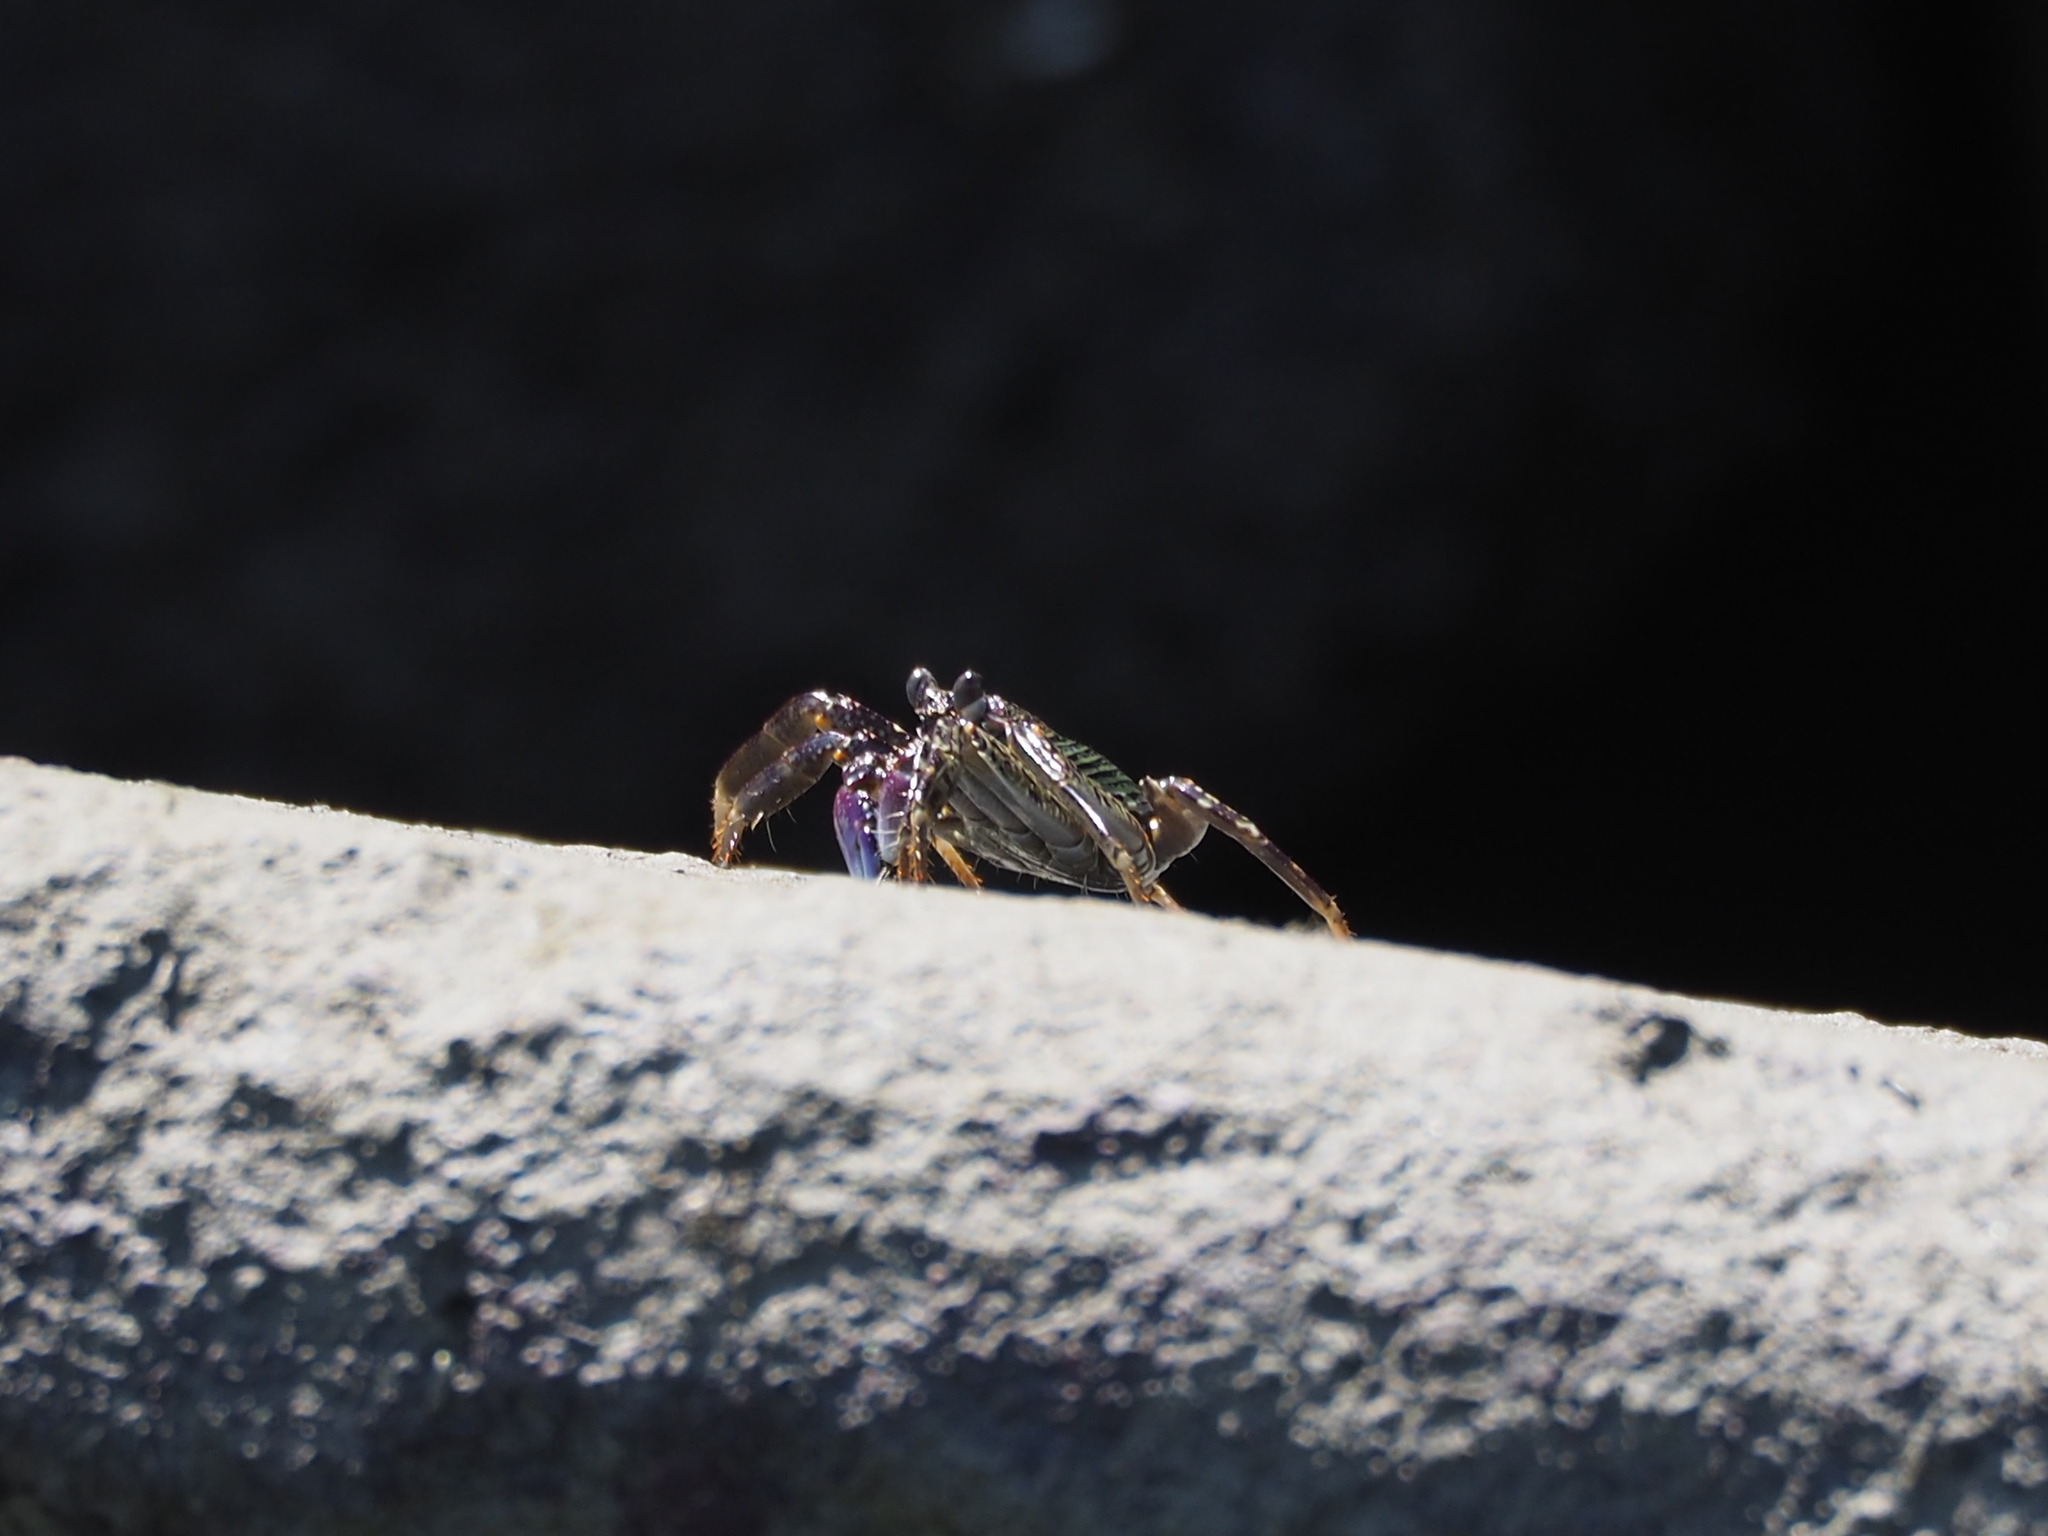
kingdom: Animalia
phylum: Arthropoda
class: Malacostraca
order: Decapoda
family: Grapsidae
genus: Grapsus
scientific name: Grapsus albolineatus
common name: Mottled lightfoot crab
